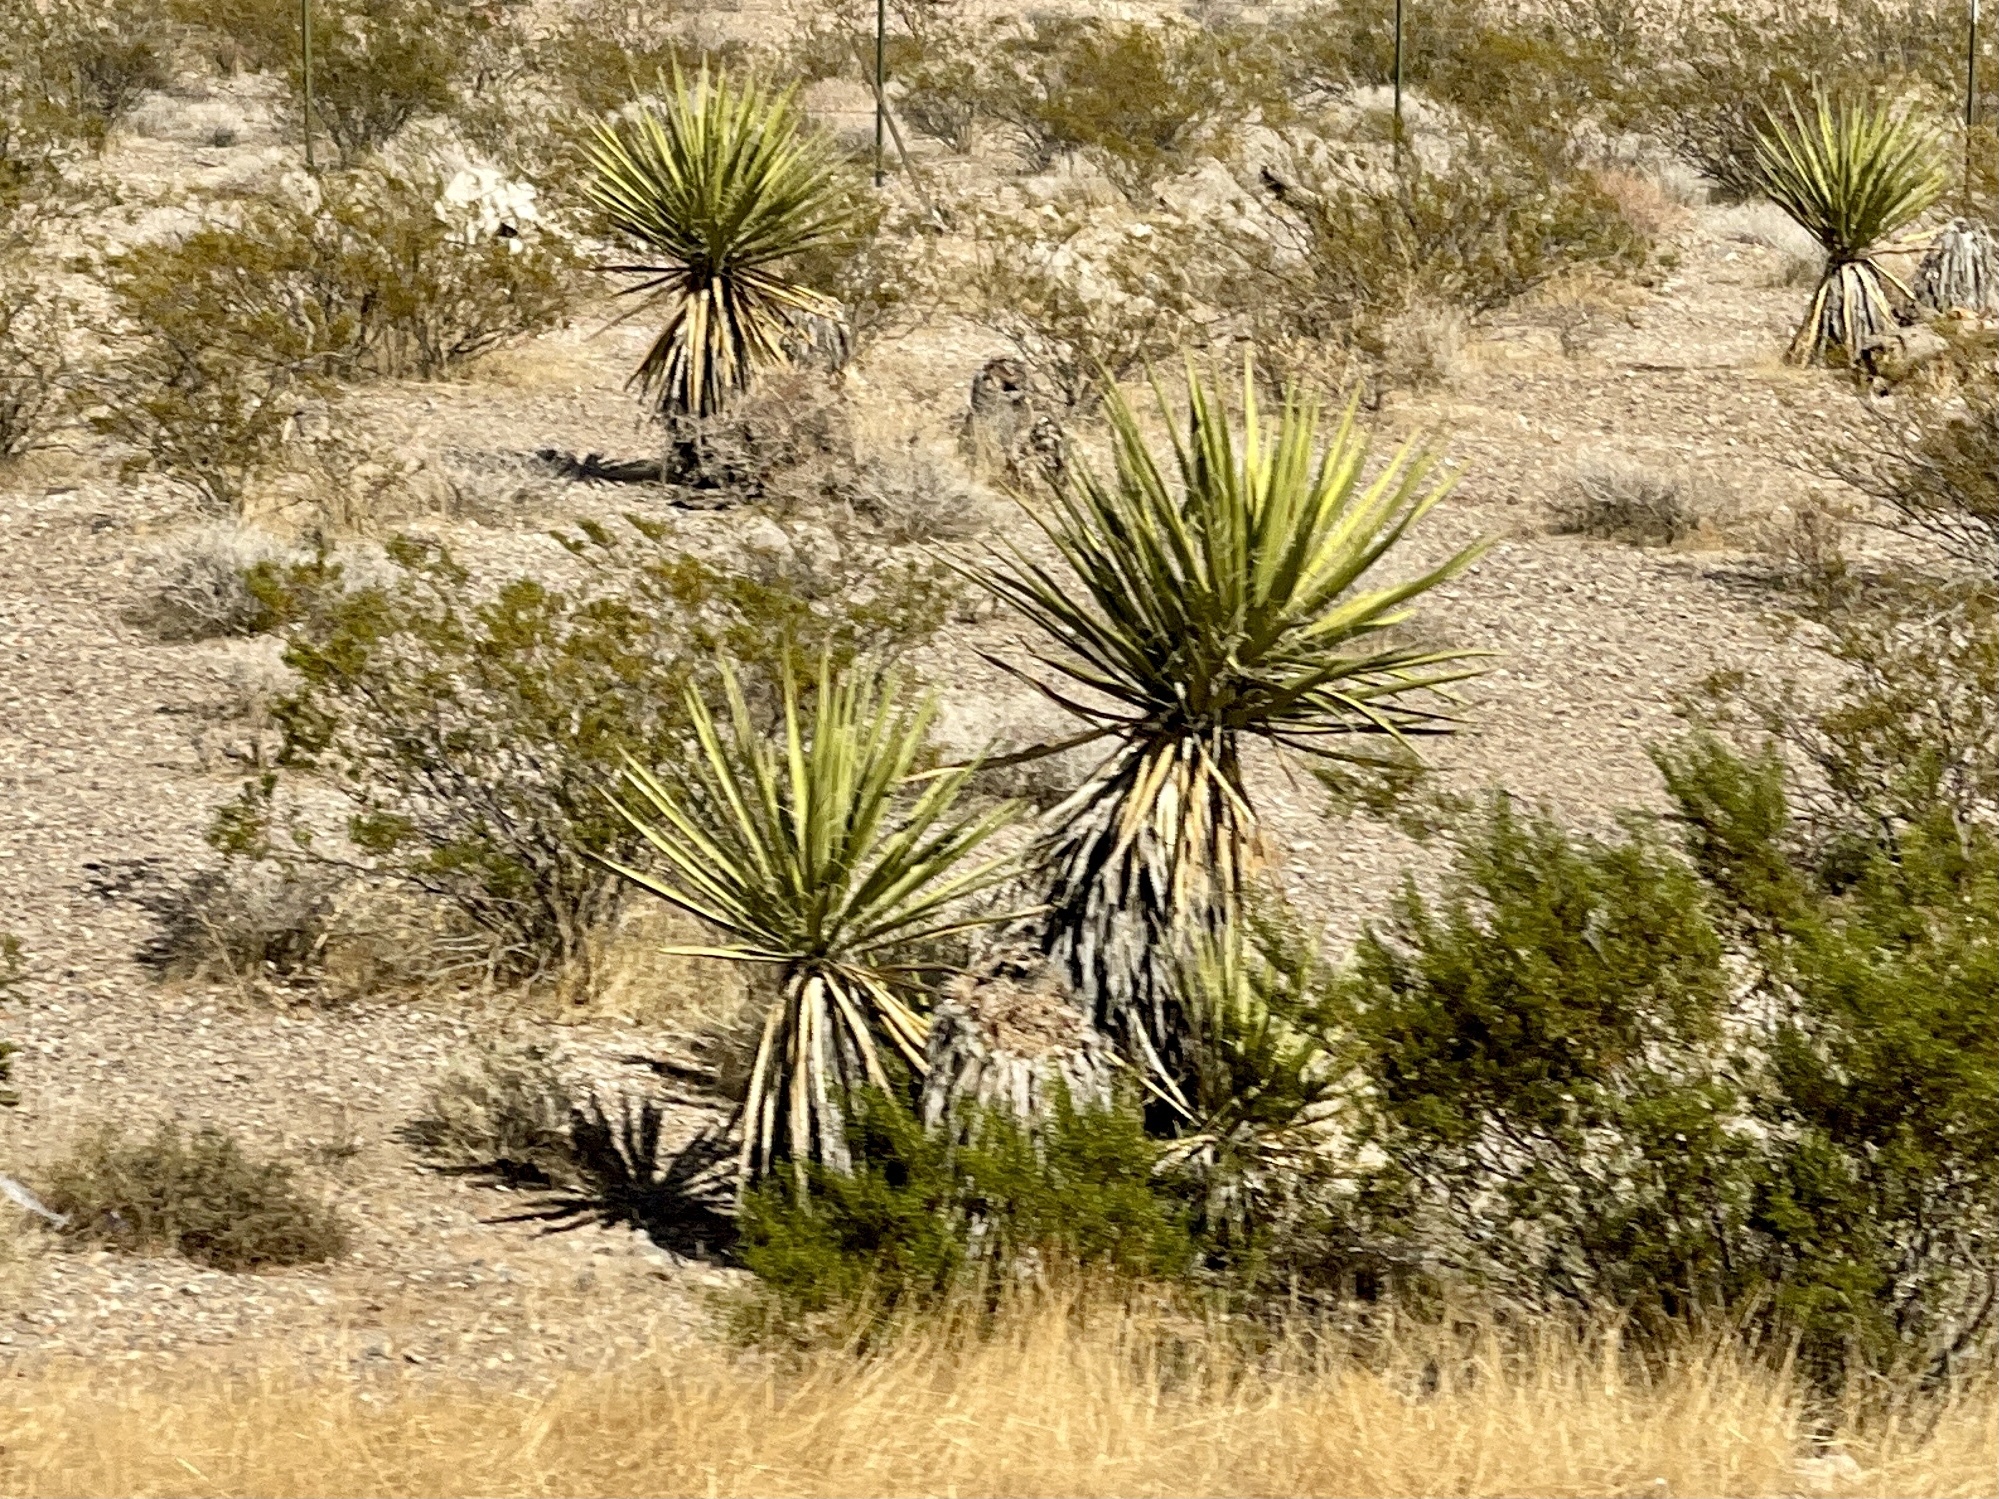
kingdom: Plantae
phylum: Tracheophyta
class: Liliopsida
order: Asparagales
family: Asparagaceae
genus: Yucca
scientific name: Yucca schidigera
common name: Mojave yucca
